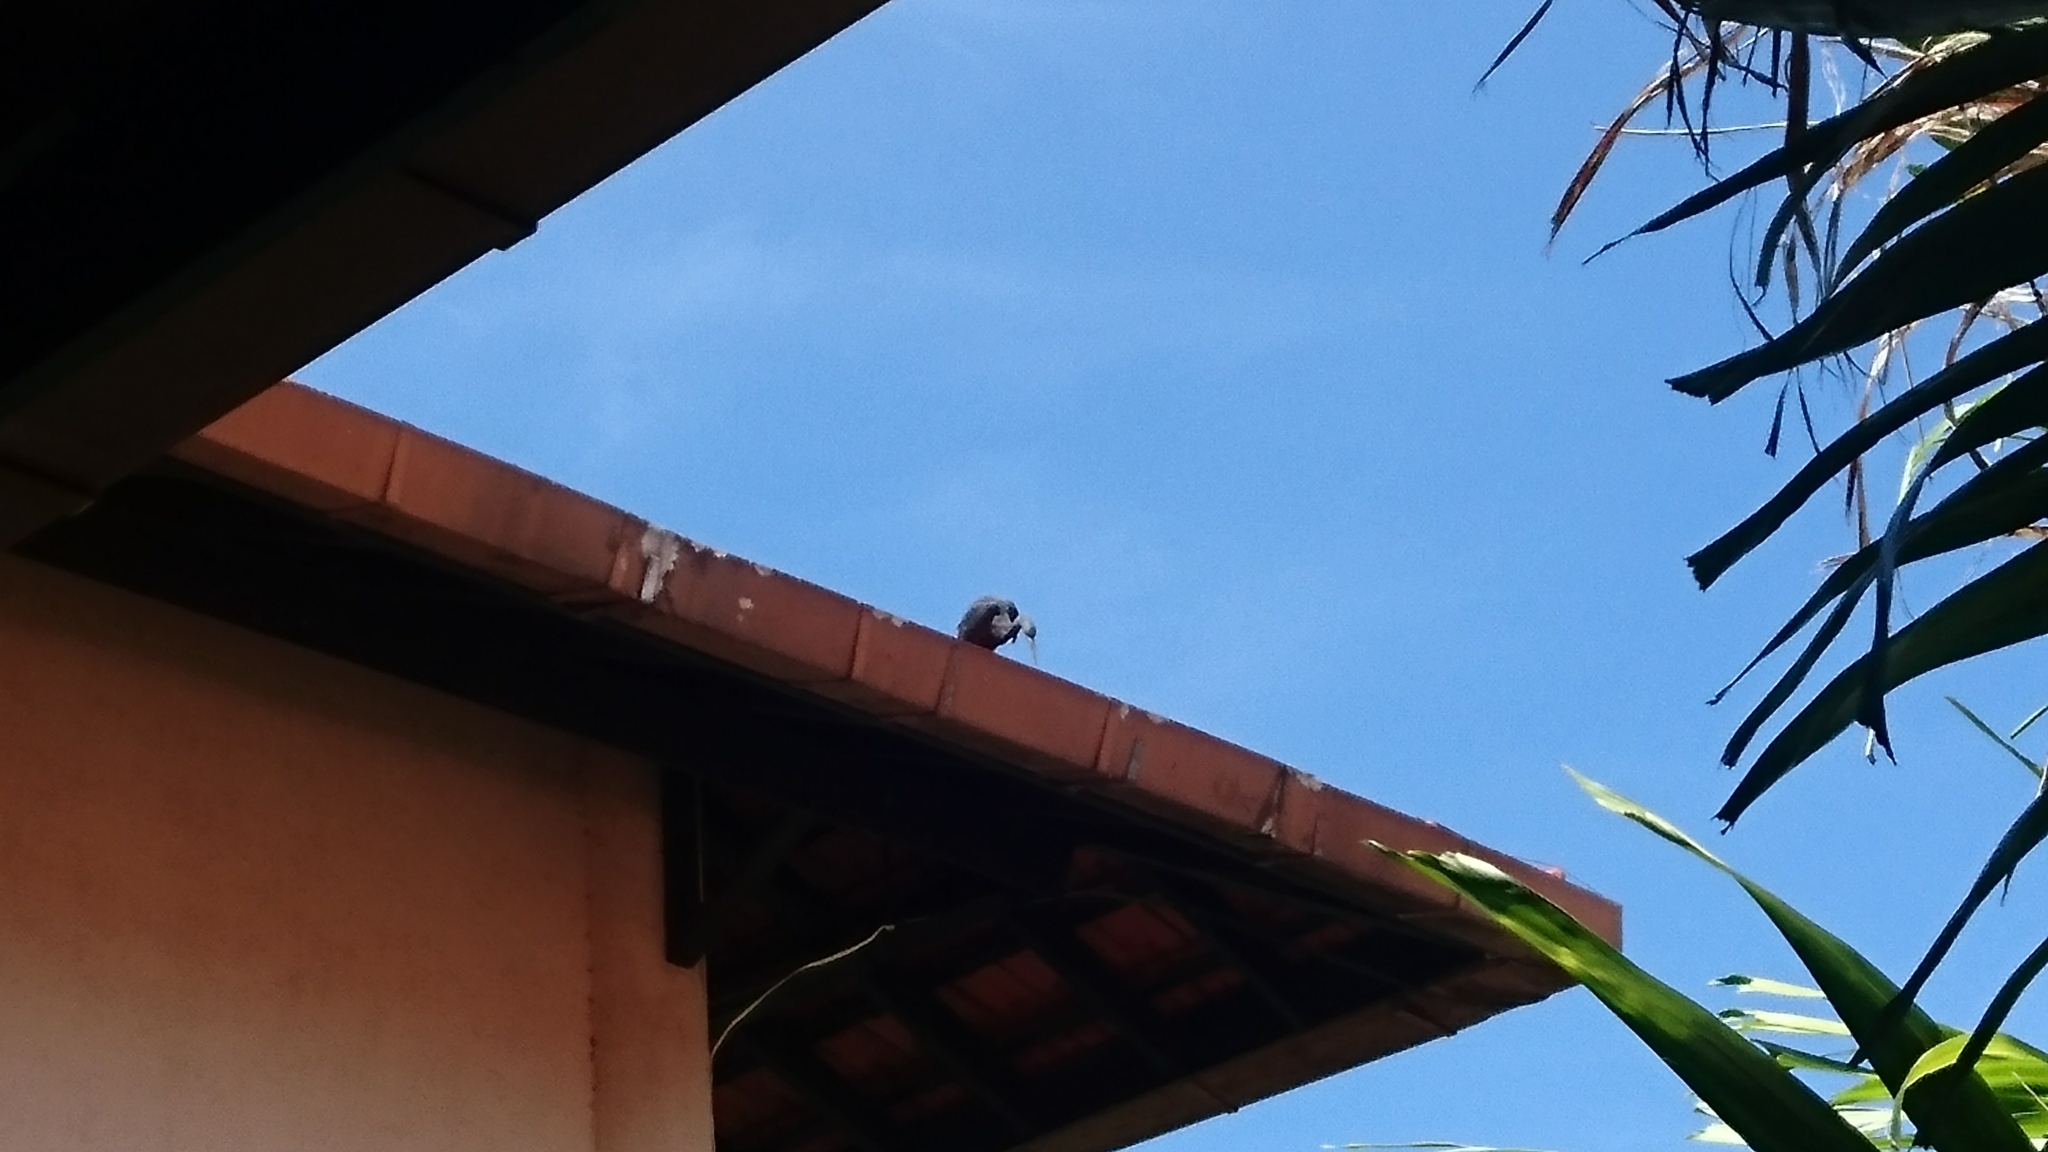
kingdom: Animalia
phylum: Chordata
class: Aves
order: Pelecaniformes
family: Ardeidae
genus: Egretta
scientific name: Egretta sacra
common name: Pacific reef heron
